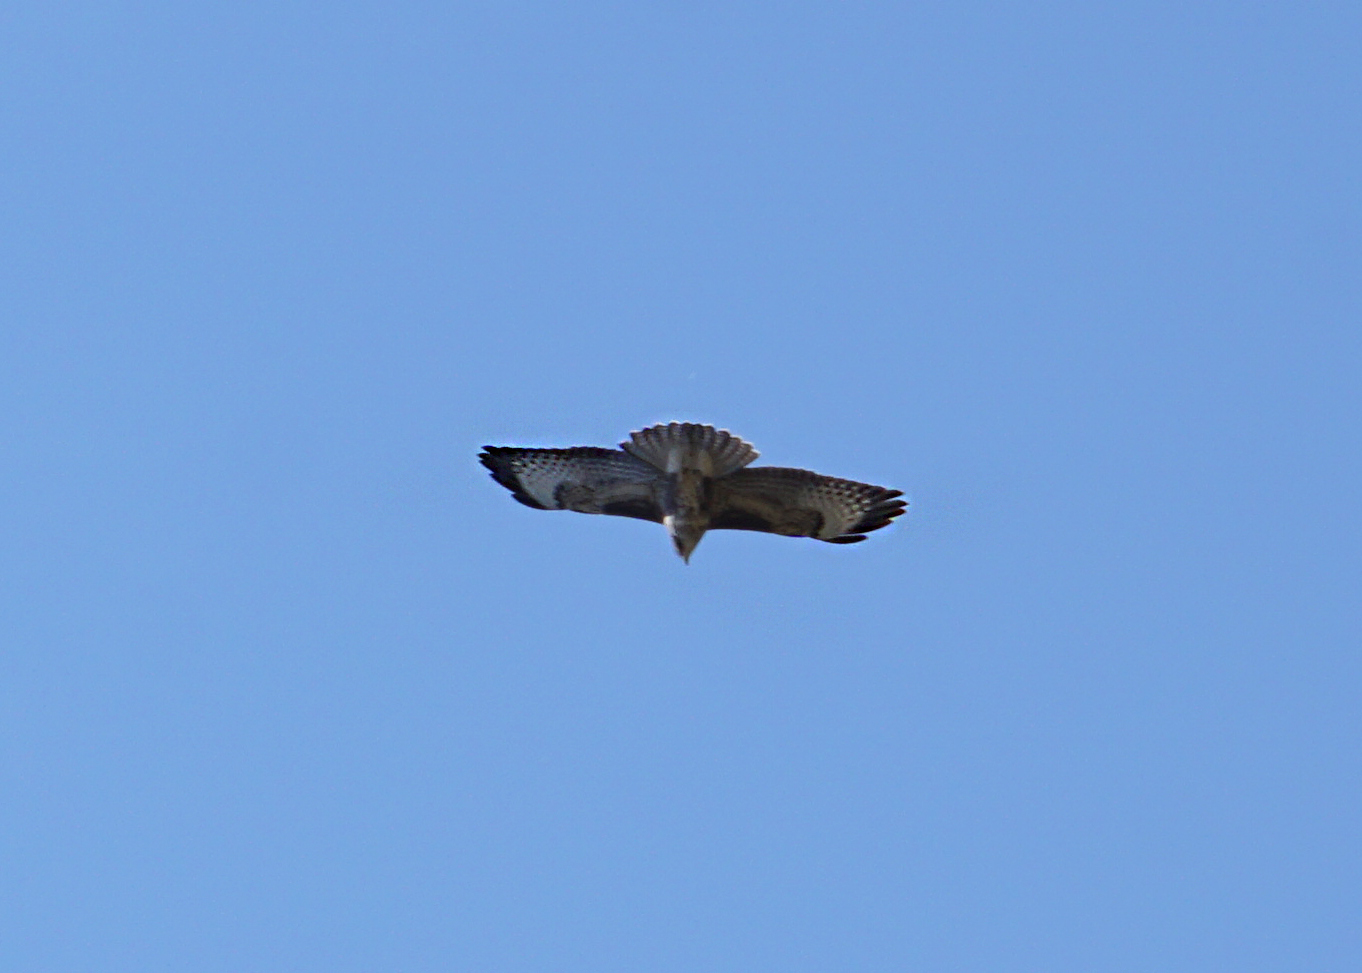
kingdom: Animalia
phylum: Chordata
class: Aves
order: Accipitriformes
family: Accipitridae
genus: Buteo
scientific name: Buteo buteo
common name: Common buzzard
